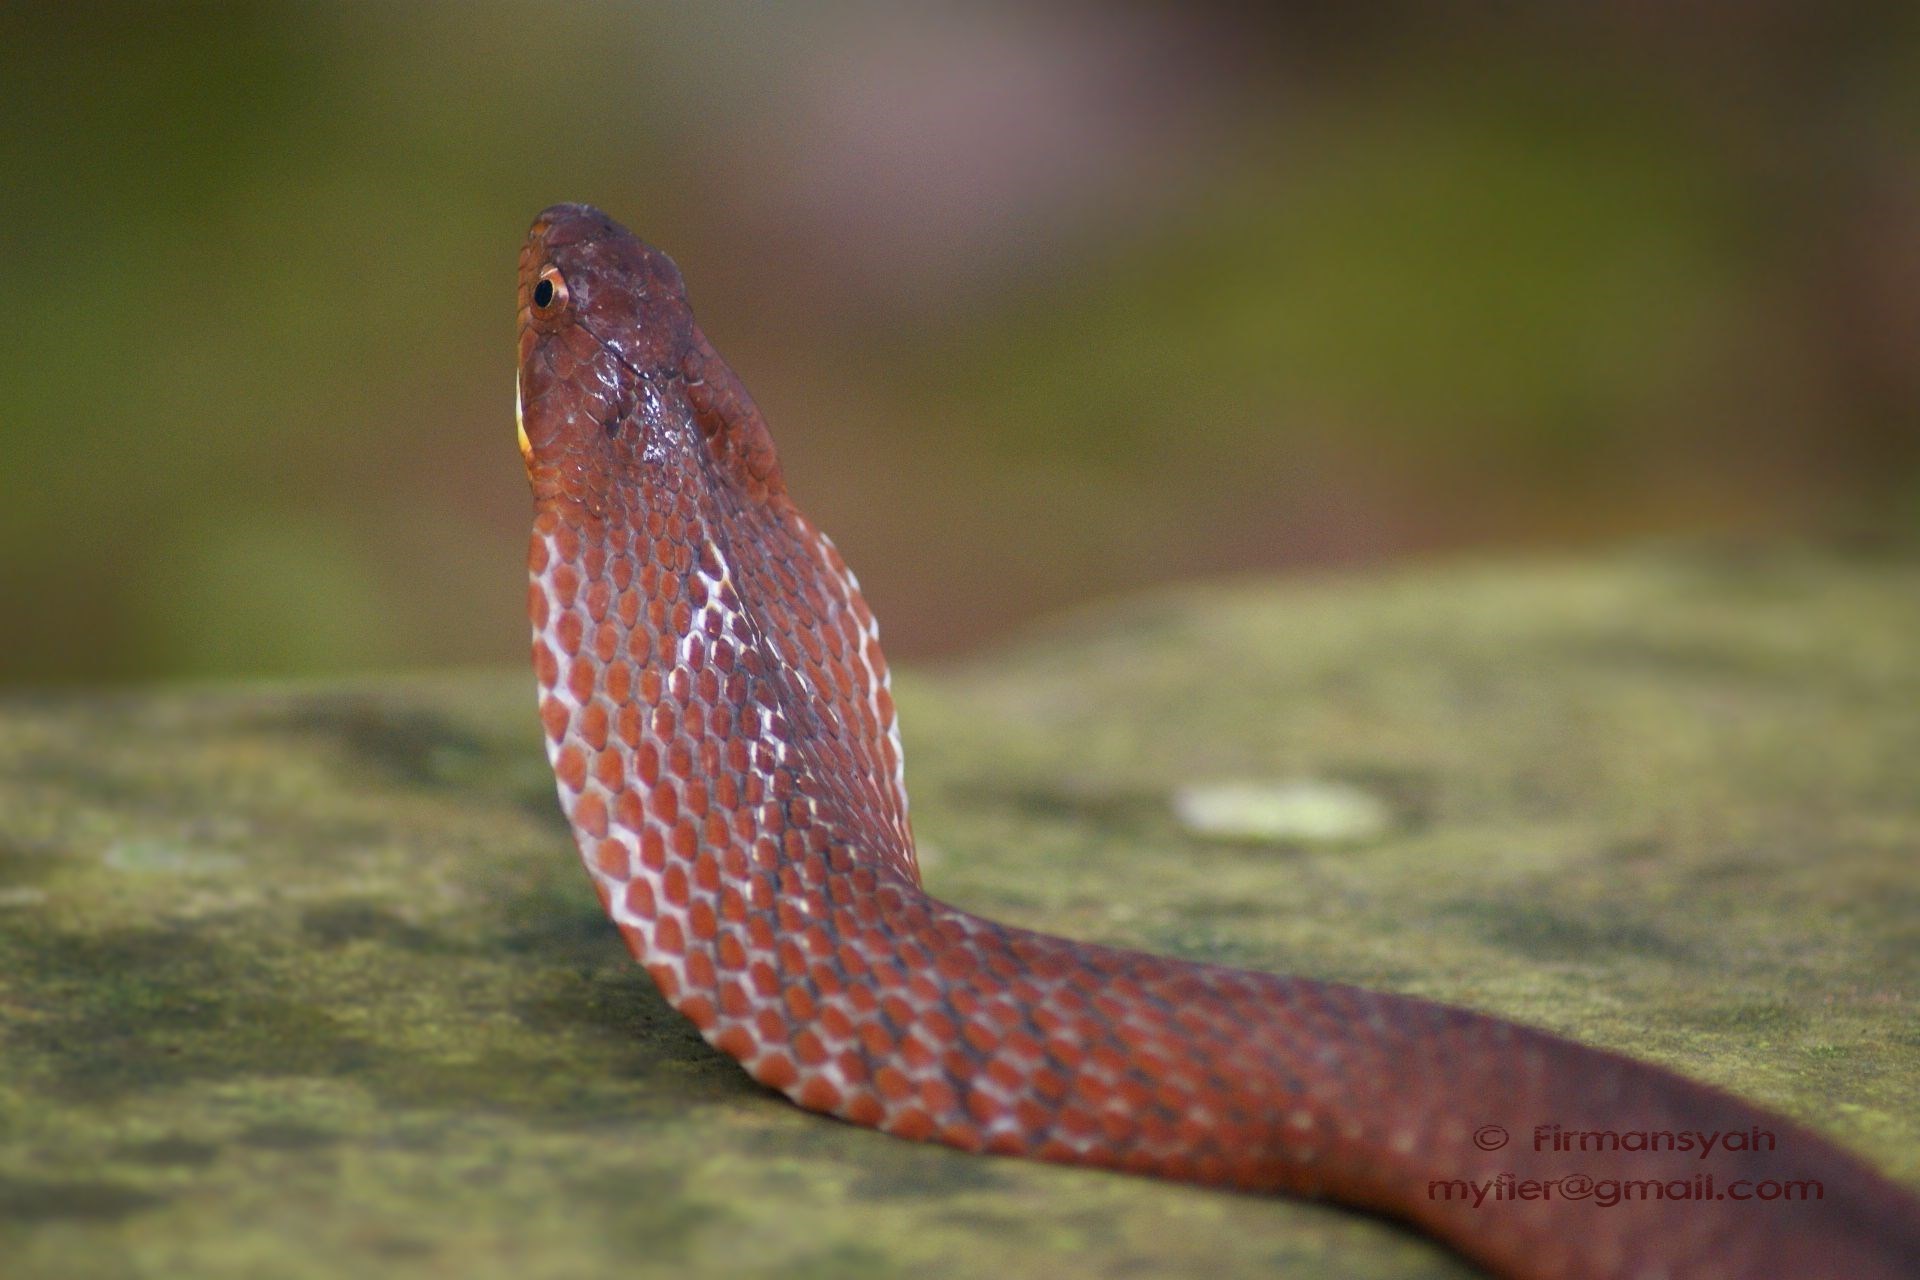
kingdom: Animalia
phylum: Chordata
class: Squamata
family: Colubridae
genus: Pseudoxenodon
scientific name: Pseudoxenodon inornatus
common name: Dull bamboo snake
